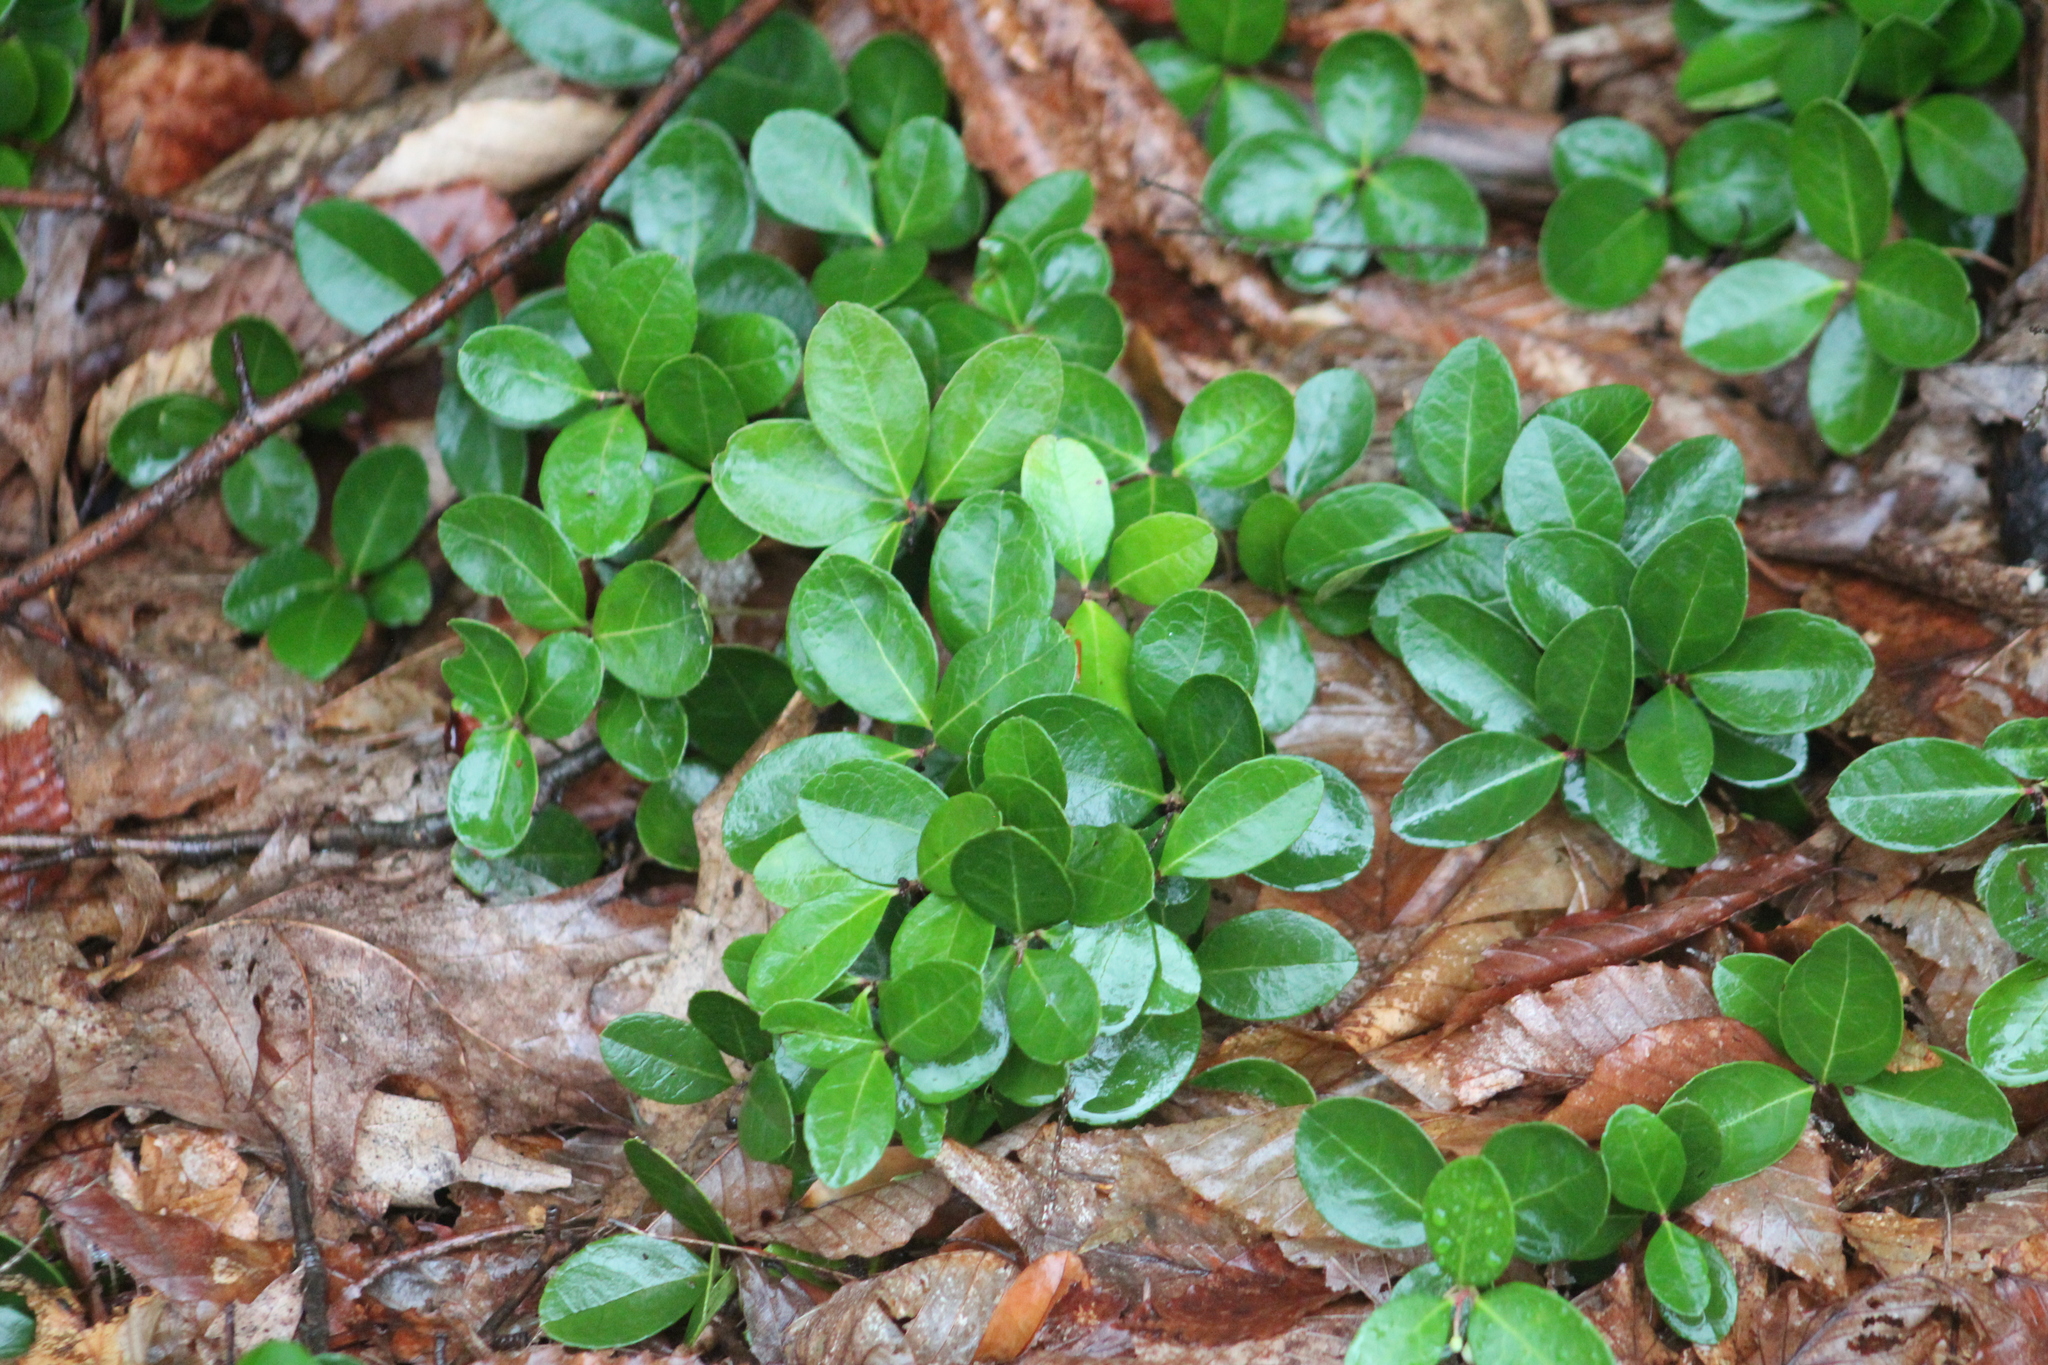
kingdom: Plantae
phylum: Tracheophyta
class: Magnoliopsida
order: Ericales
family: Ericaceae
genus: Gaultheria
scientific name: Gaultheria procumbens
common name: Checkerberry
